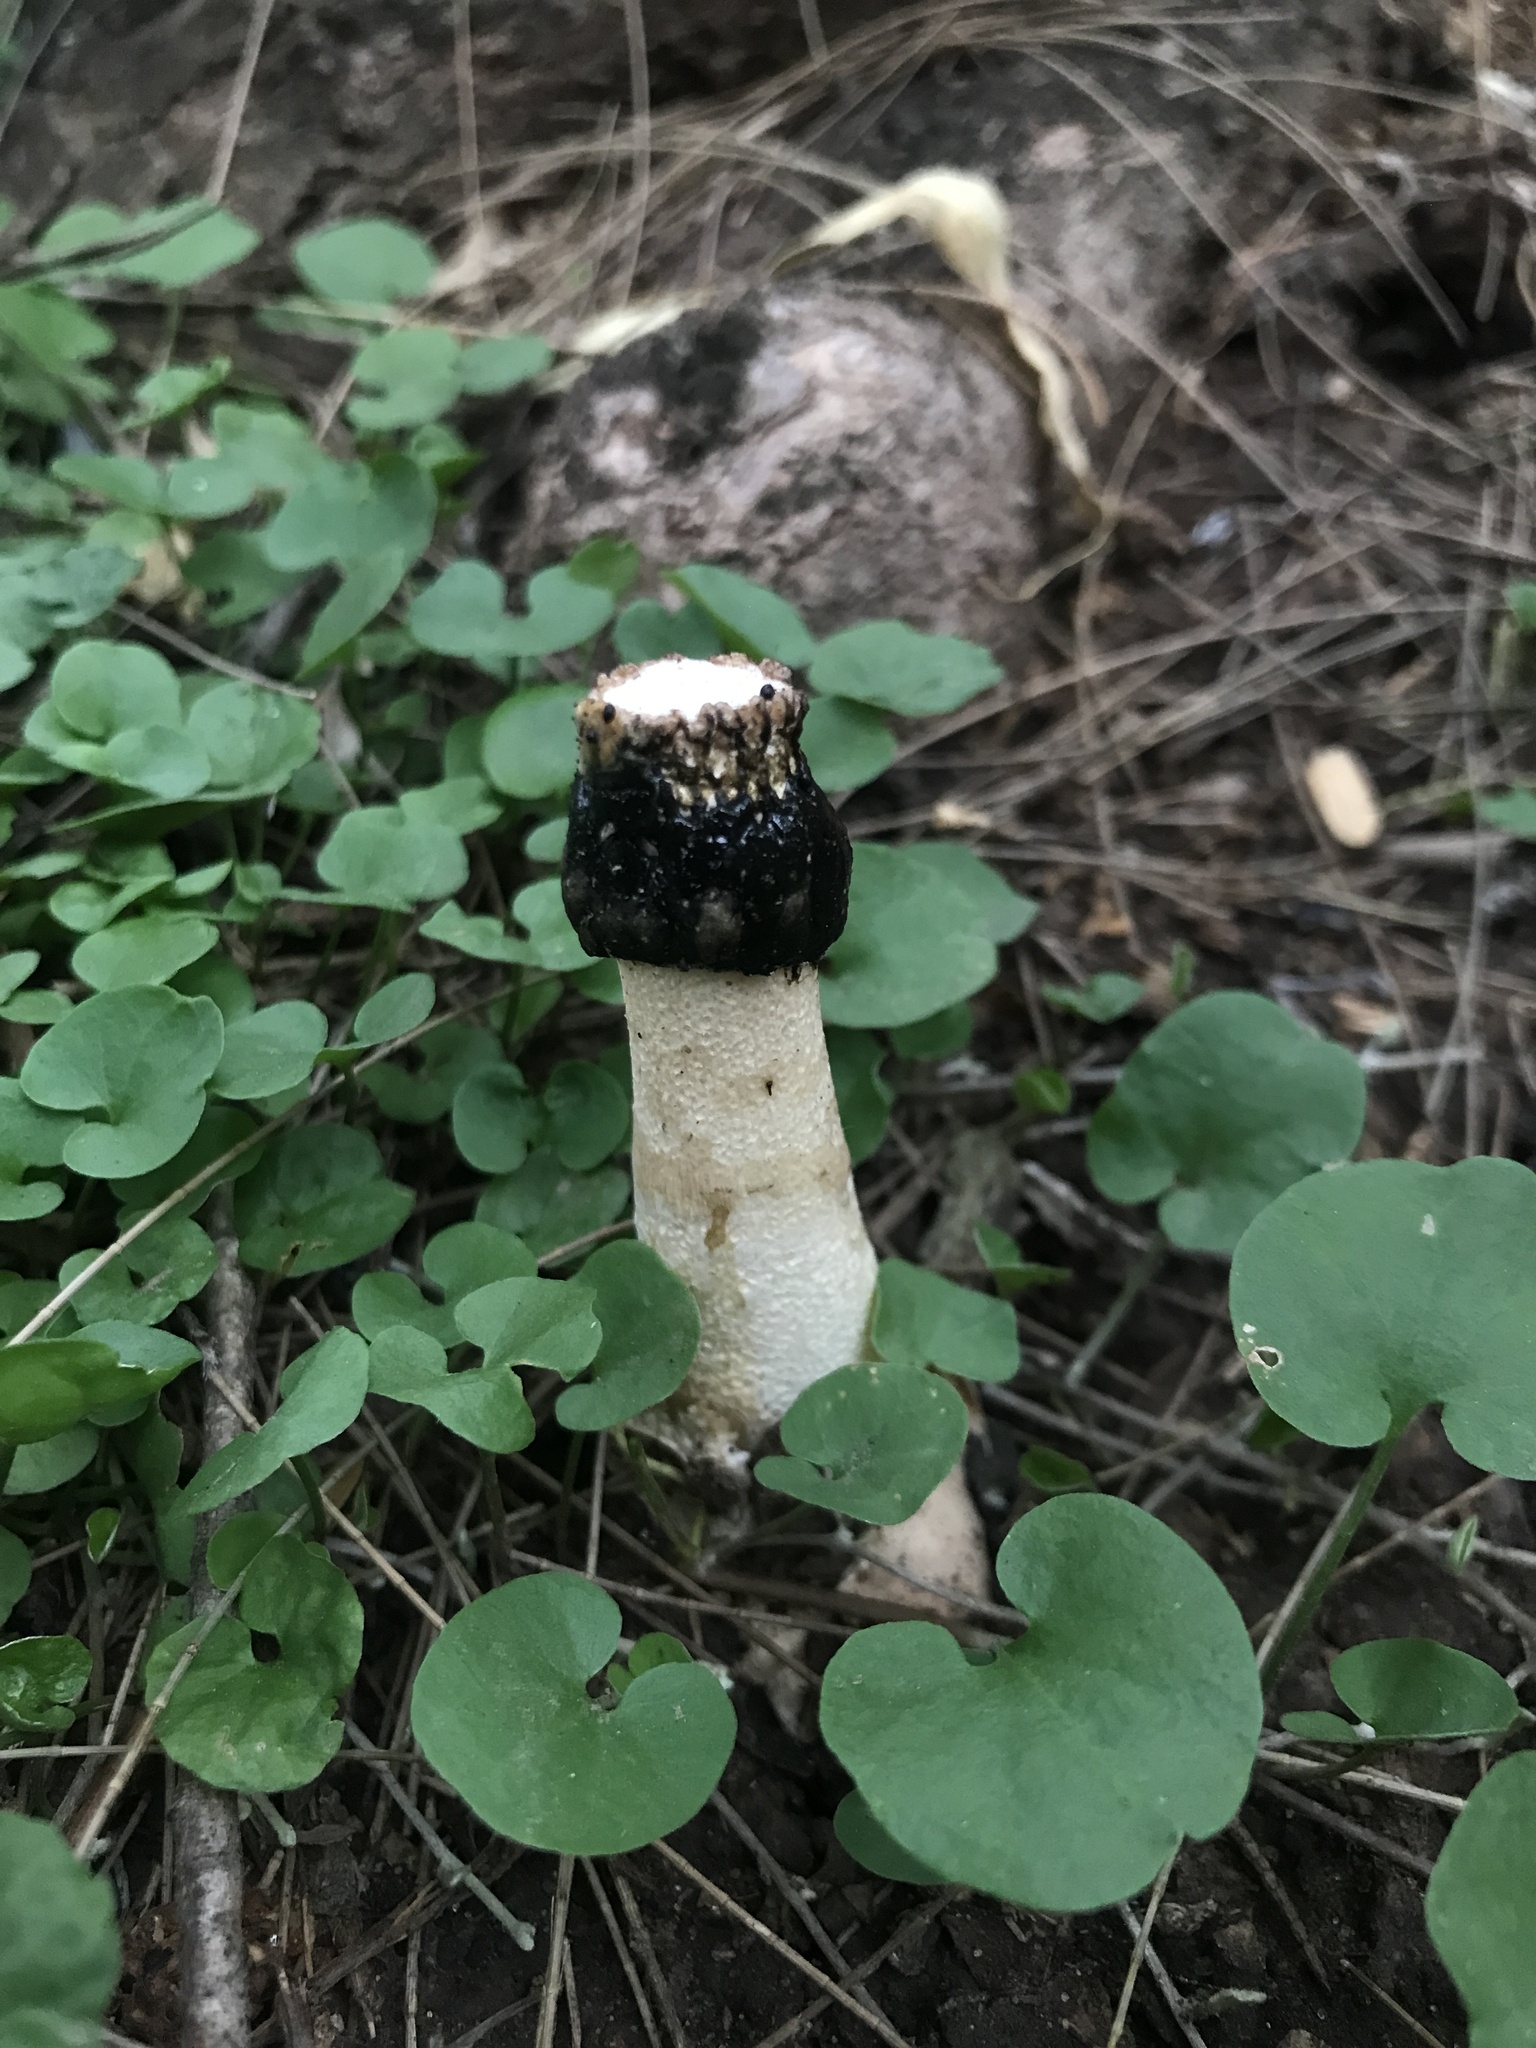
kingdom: Fungi
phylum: Basidiomycota
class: Agaricomycetes
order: Phallales
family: Phallaceae
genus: Itajahya
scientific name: Itajahya galericulata
